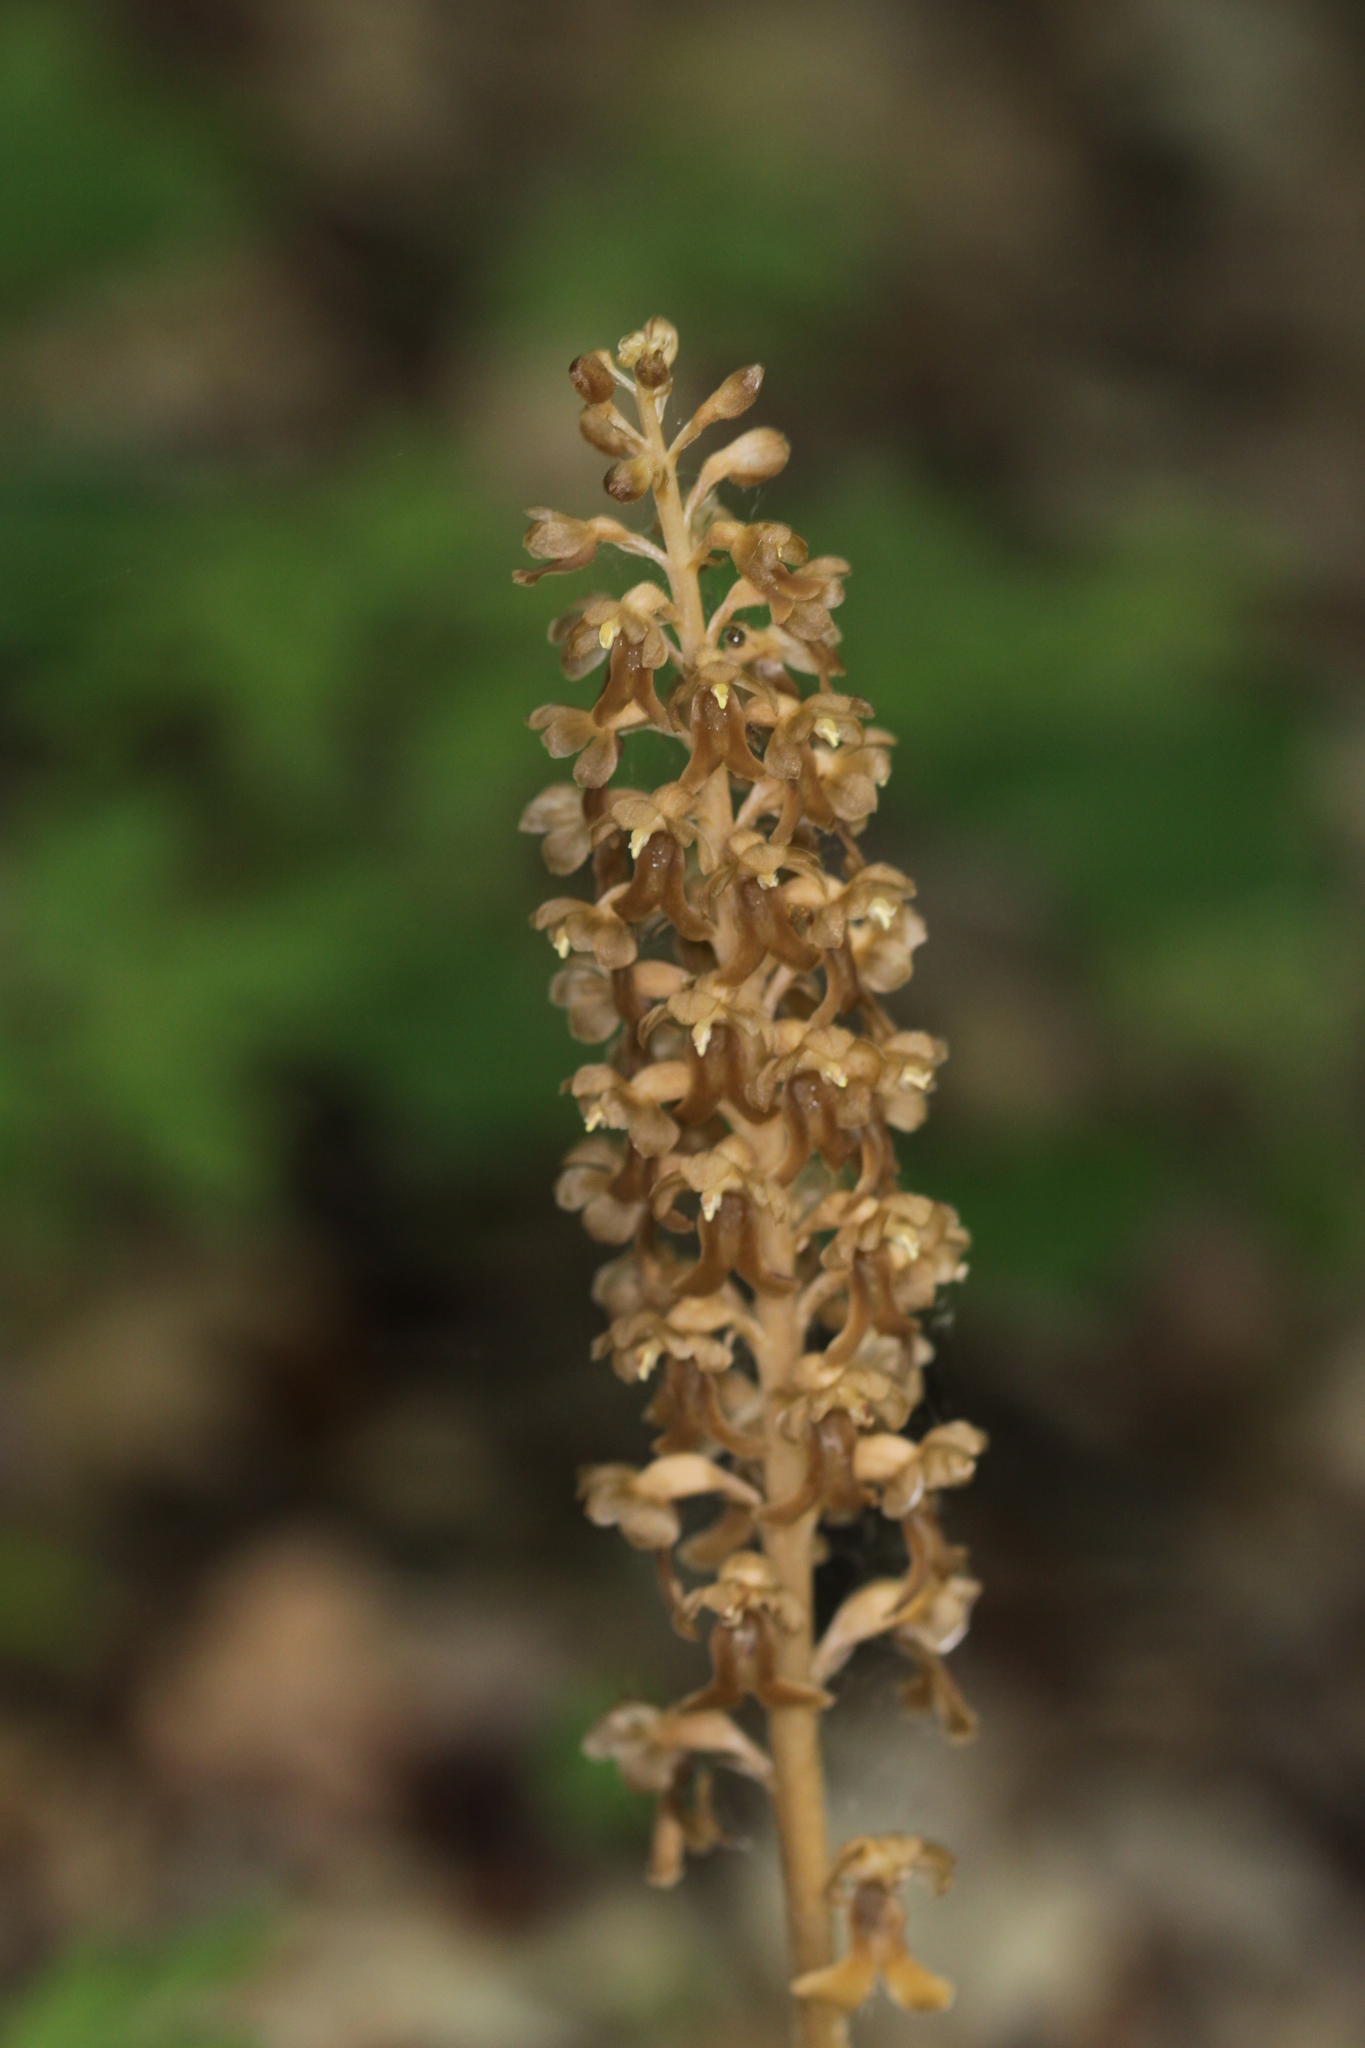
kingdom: Plantae
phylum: Tracheophyta
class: Liliopsida
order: Asparagales
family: Orchidaceae
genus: Neottia
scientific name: Neottia nidus-avis
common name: Bird's-nest orchid
